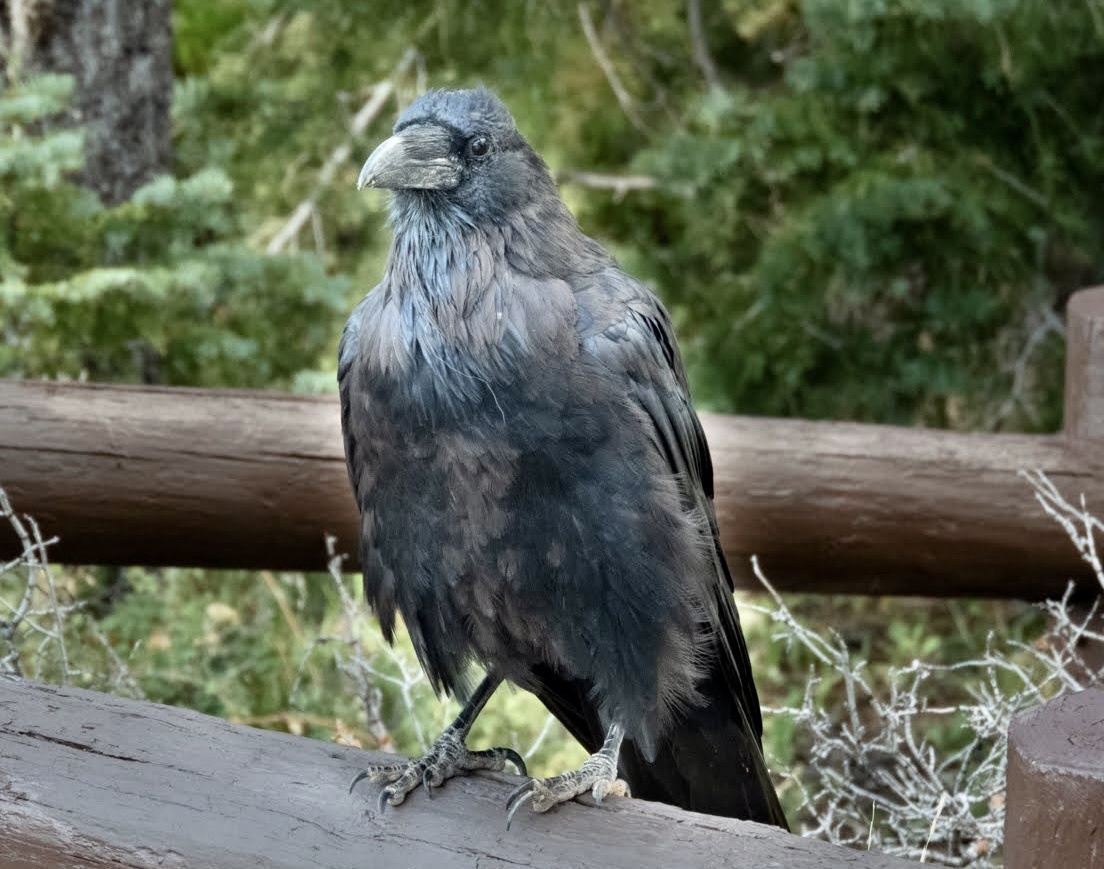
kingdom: Animalia
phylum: Chordata
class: Aves
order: Passeriformes
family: Corvidae
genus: Corvus
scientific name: Corvus corax
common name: Common raven
